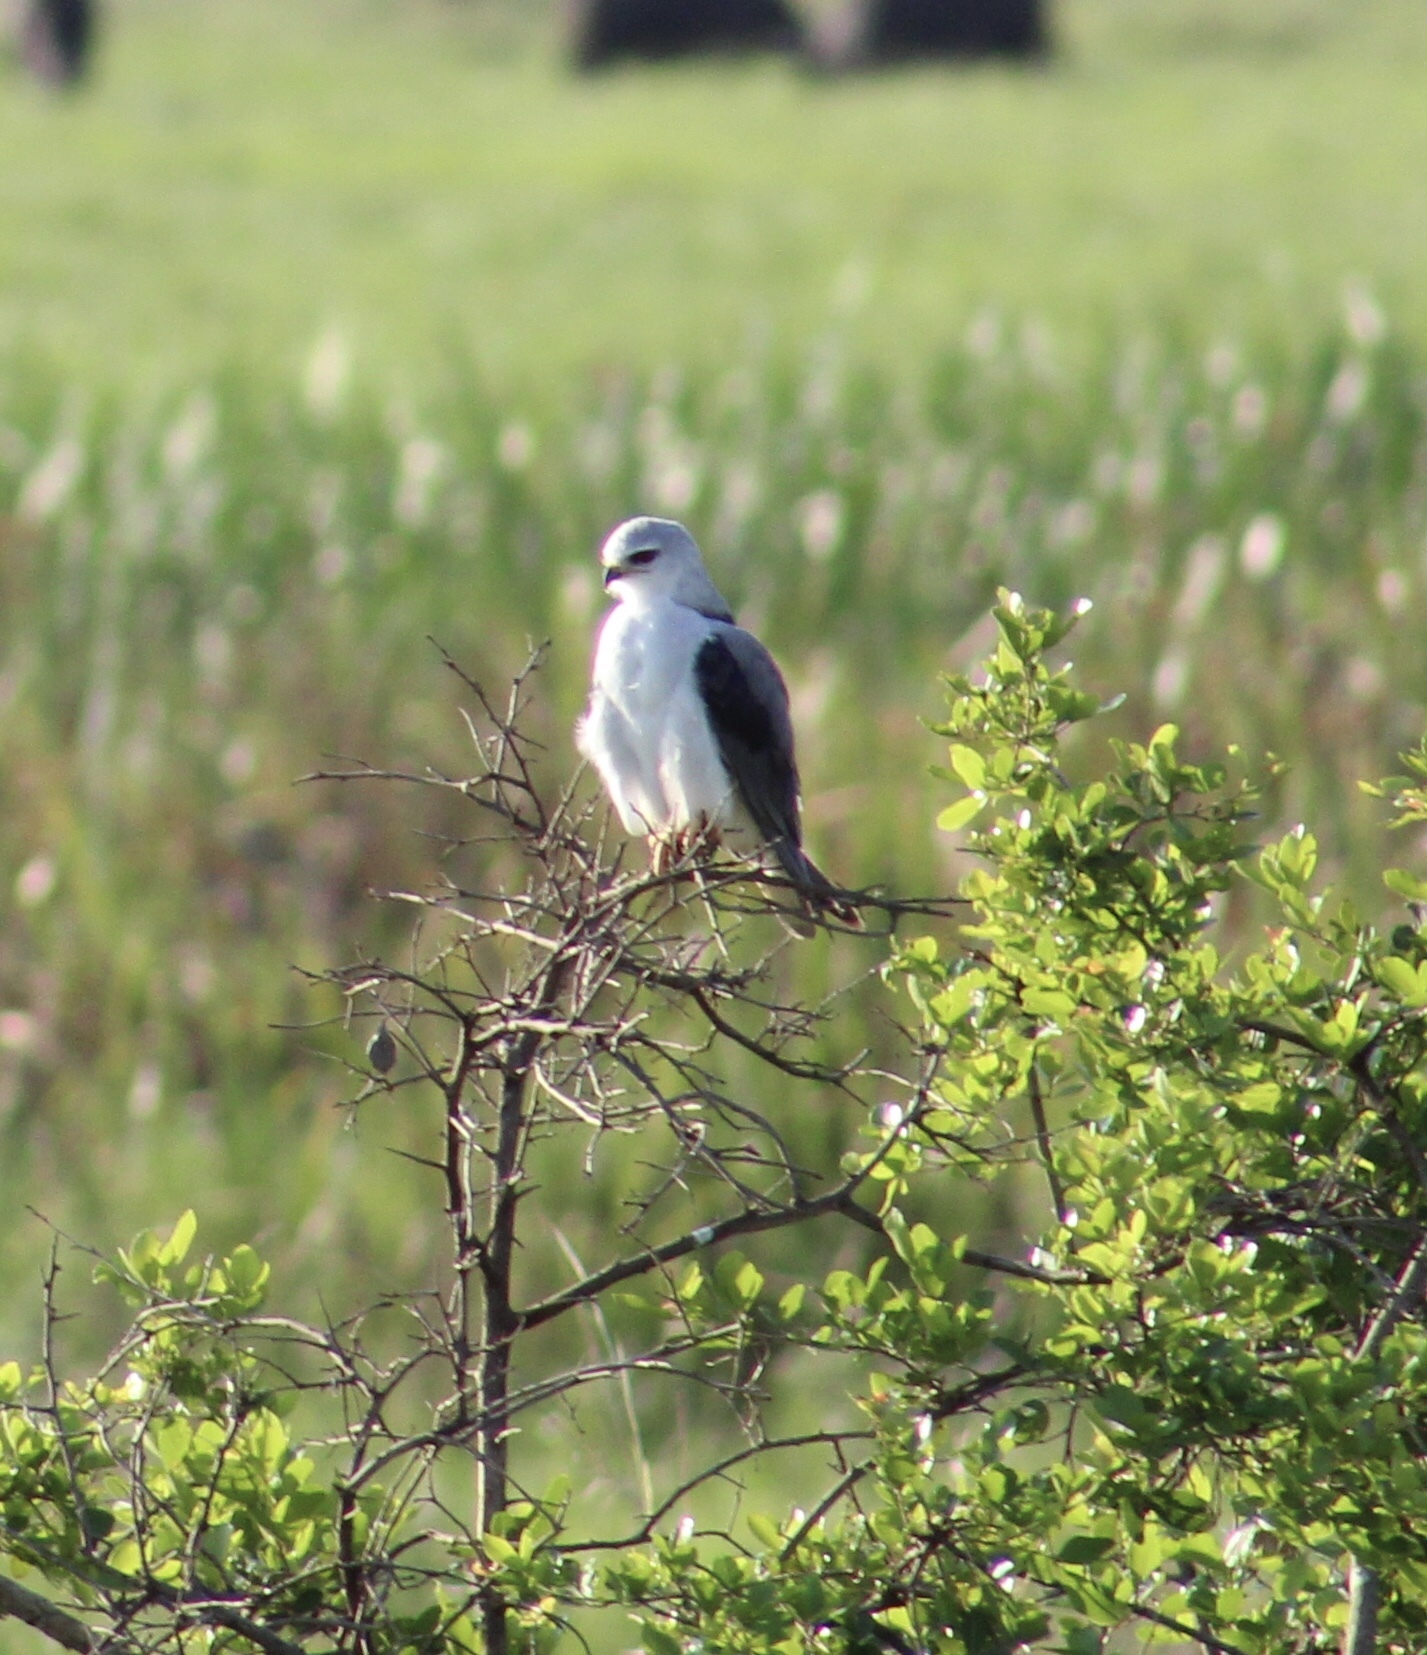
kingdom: Animalia
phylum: Chordata
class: Aves
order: Accipitriformes
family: Accipitridae
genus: Elanus
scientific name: Elanus caeruleus
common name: Black-winged kite
